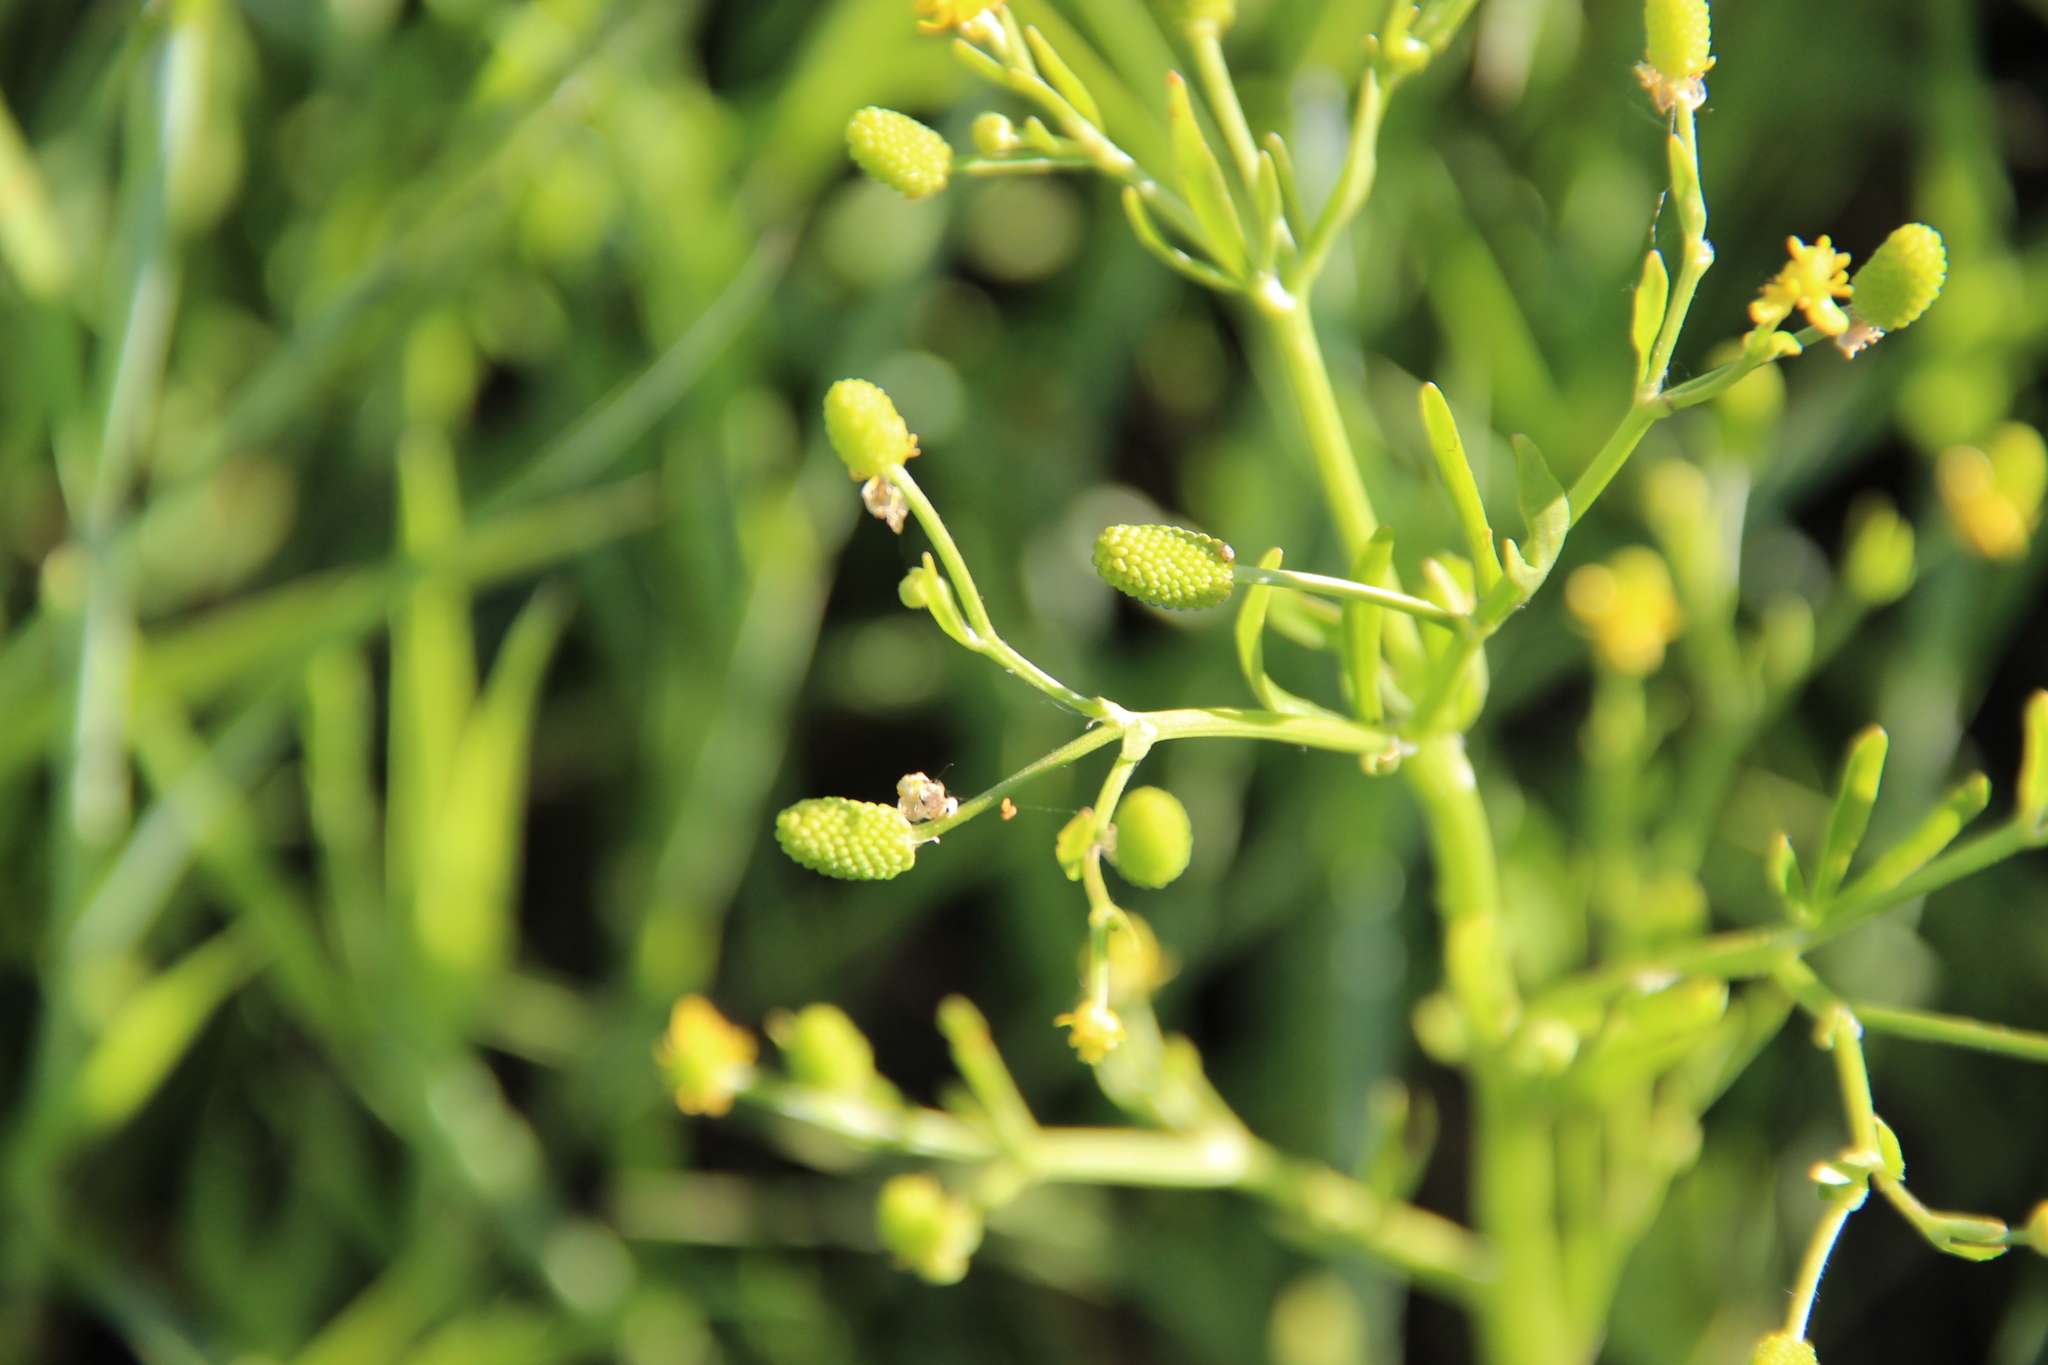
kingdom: Plantae
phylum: Tracheophyta
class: Magnoliopsida
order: Ranunculales
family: Ranunculaceae
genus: Ranunculus
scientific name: Ranunculus sceleratus
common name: Celery-leaved buttercup
